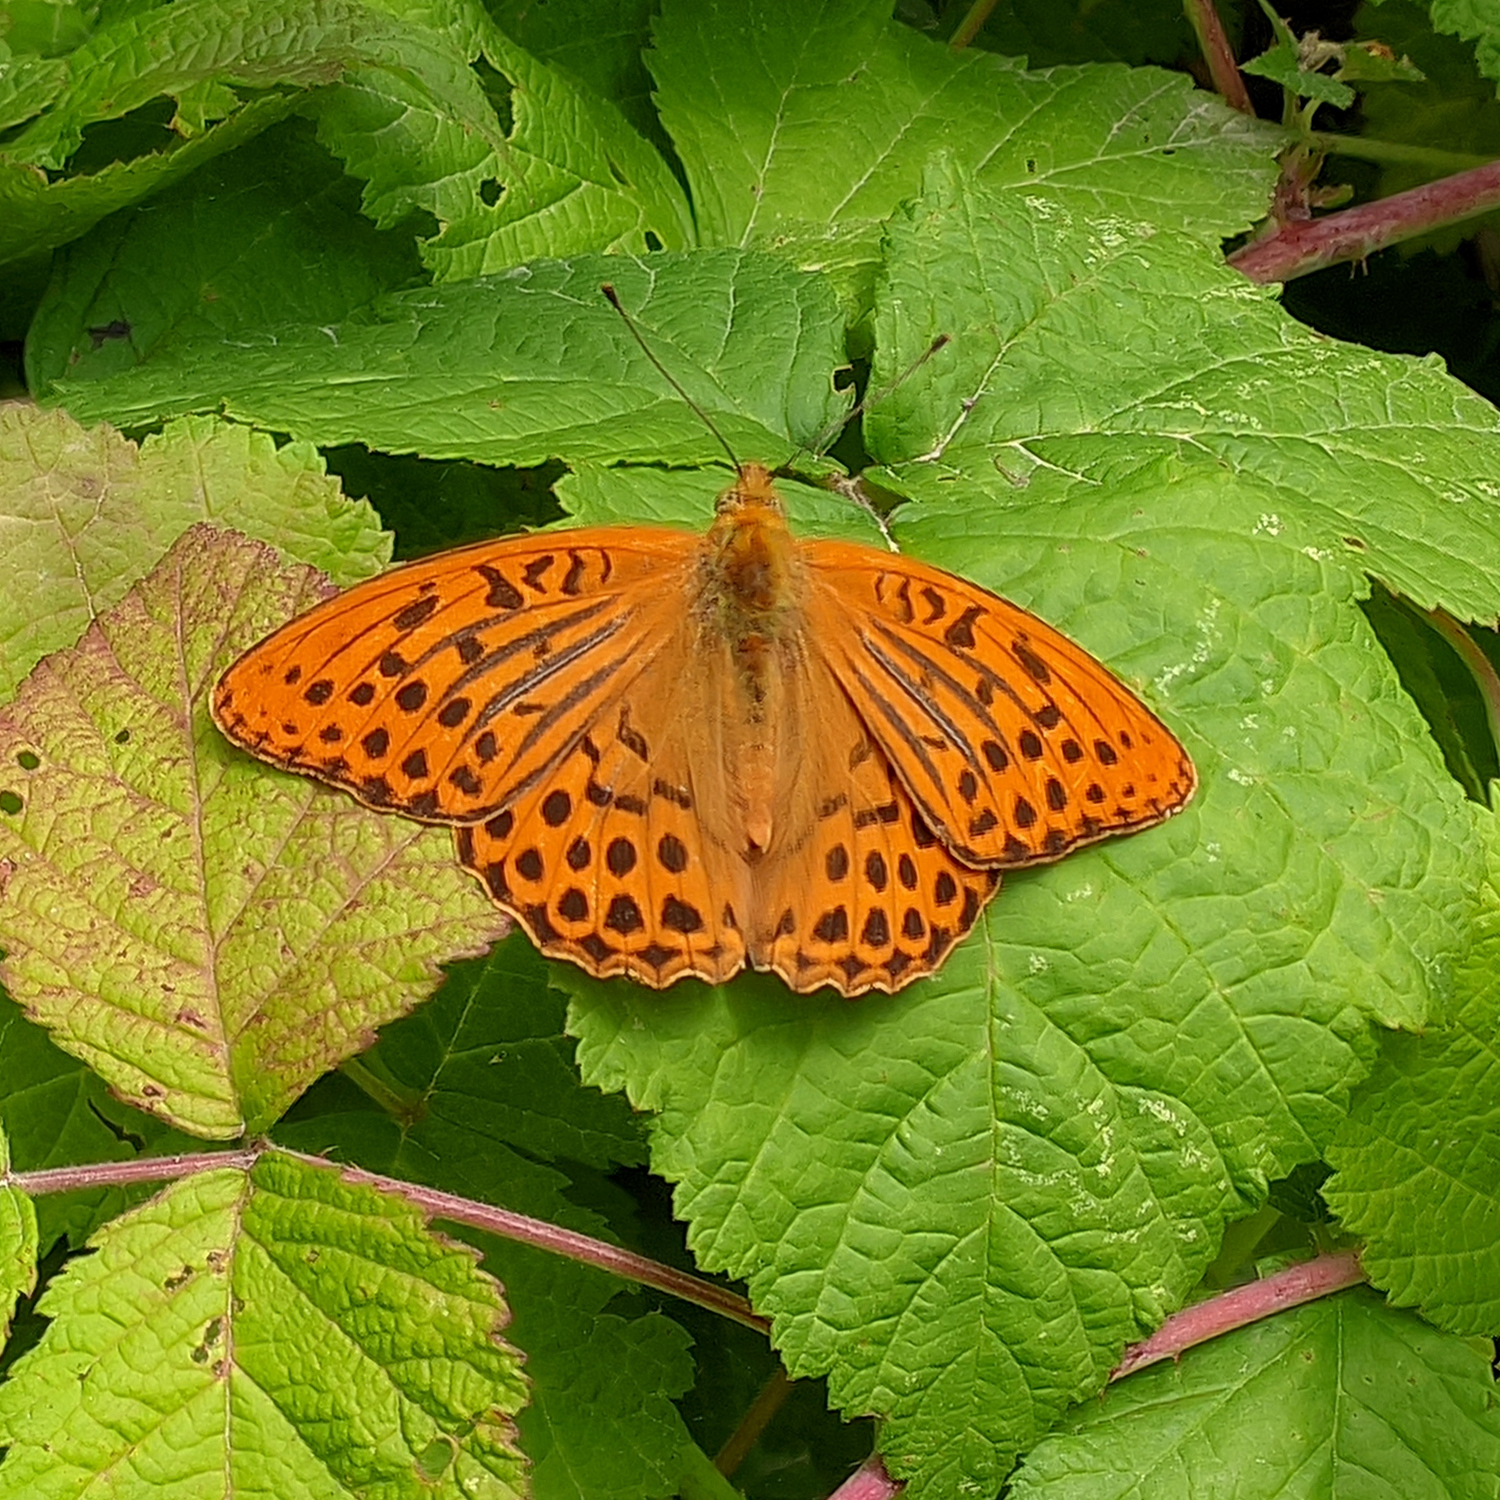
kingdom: Animalia
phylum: Arthropoda
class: Insecta
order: Lepidoptera
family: Nymphalidae
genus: Argynnis
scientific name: Argynnis paphia
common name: Silver-washed fritillary
